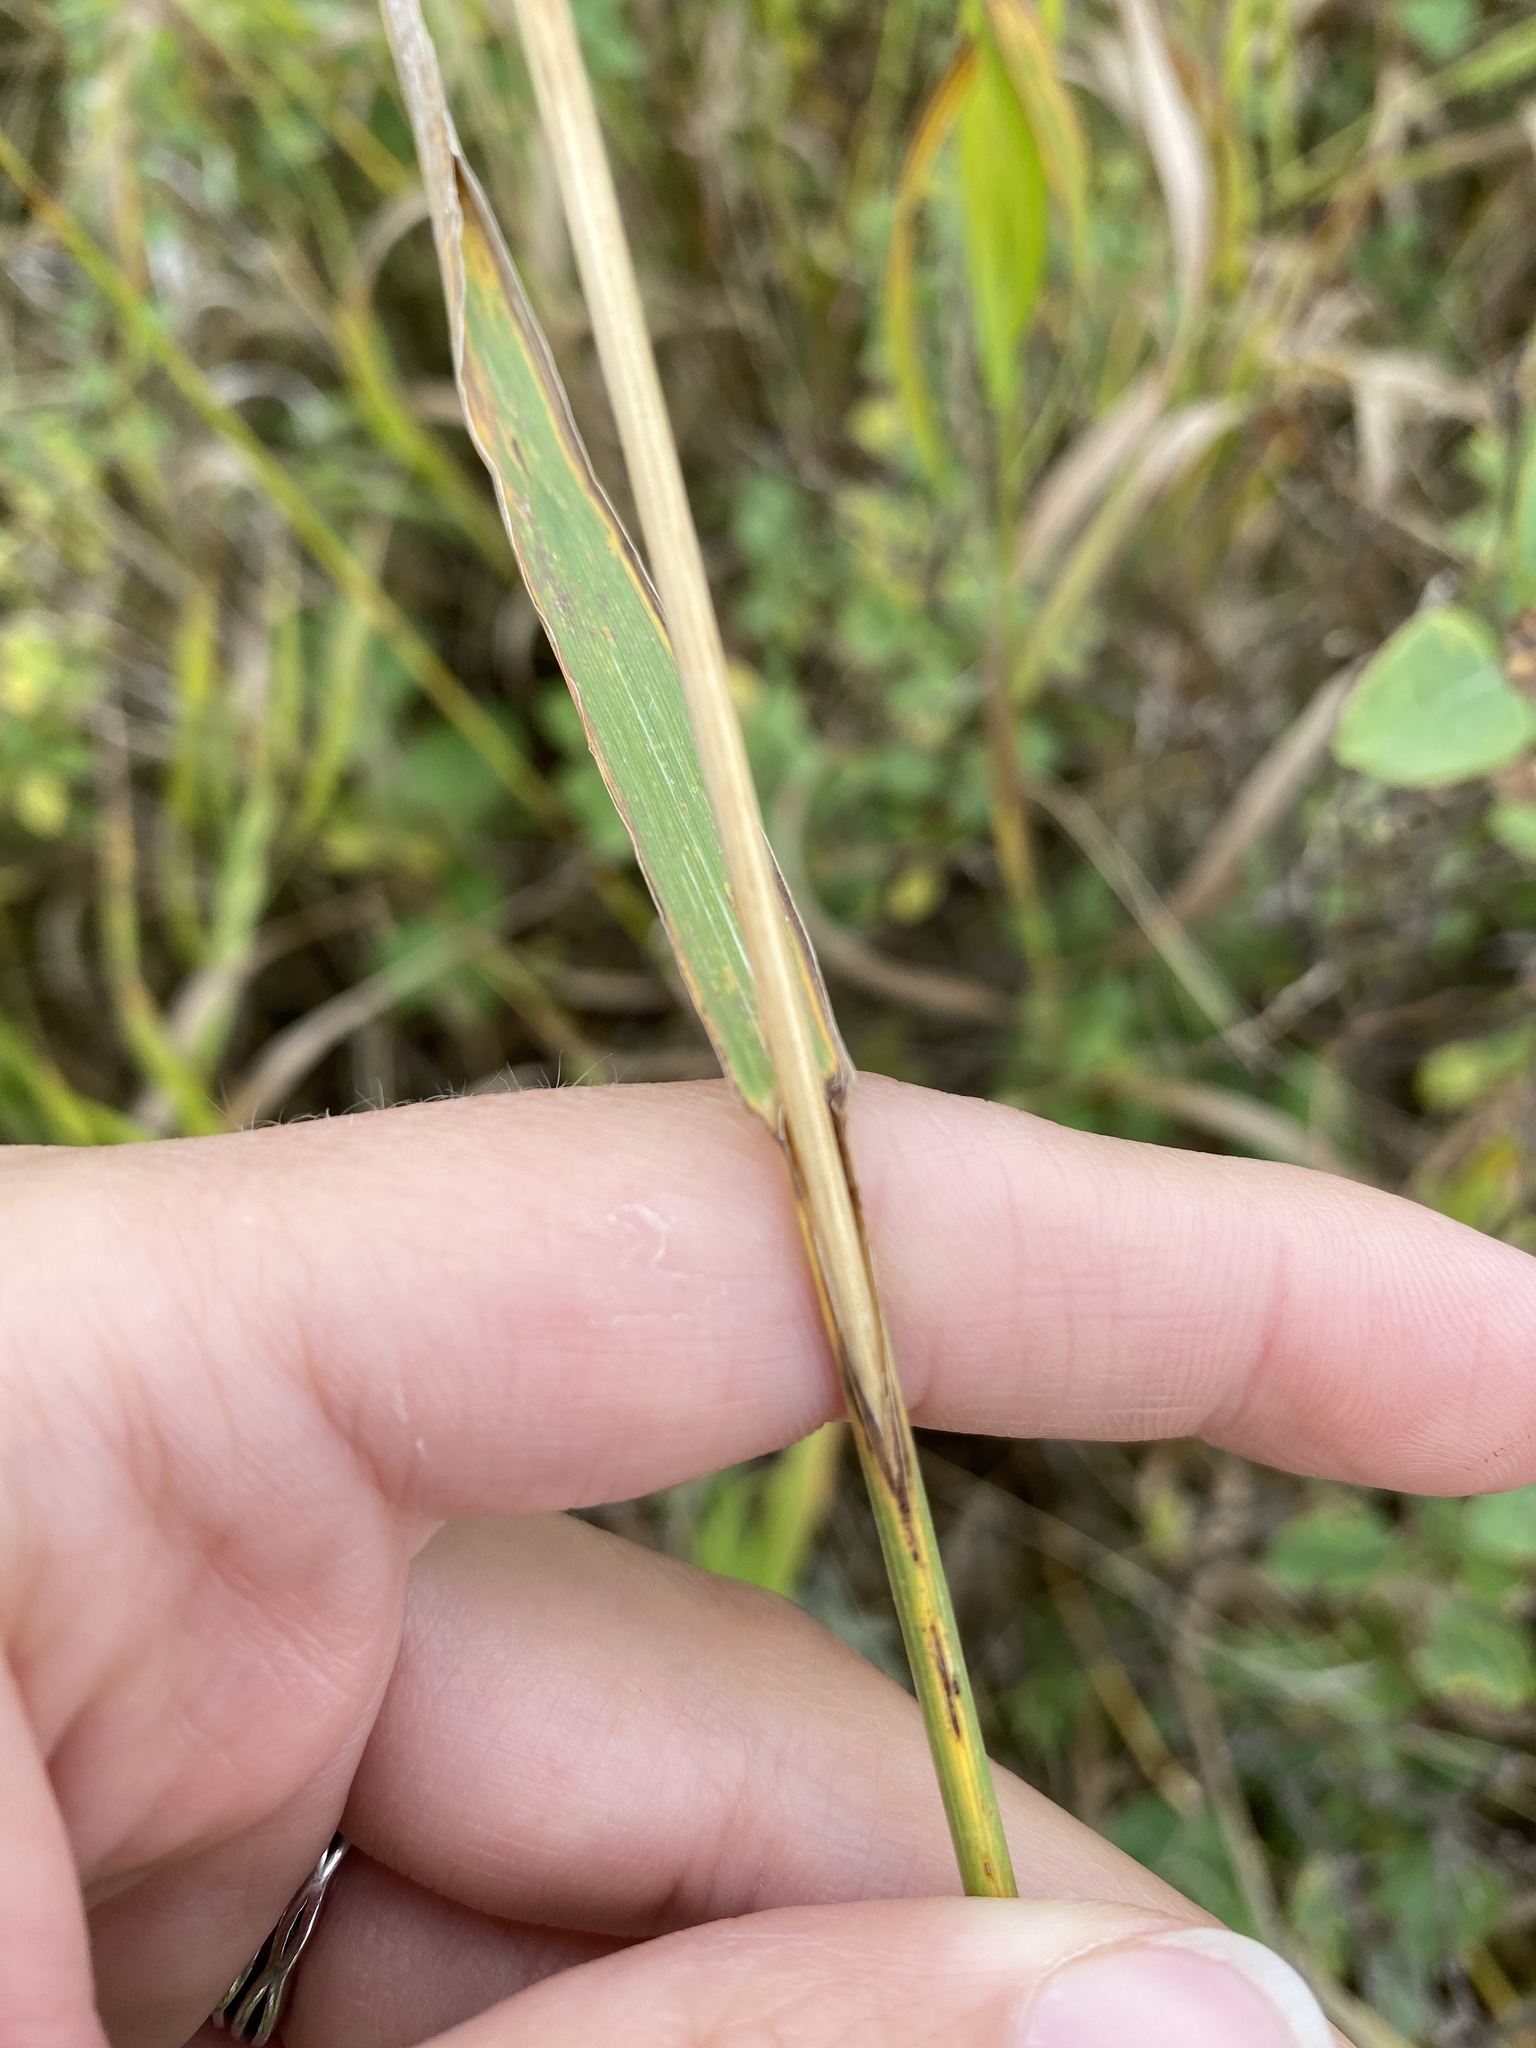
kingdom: Plantae
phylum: Tracheophyta
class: Liliopsida
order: Poales
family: Poaceae
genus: Bromus
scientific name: Bromus inermis
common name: Smooth brome
